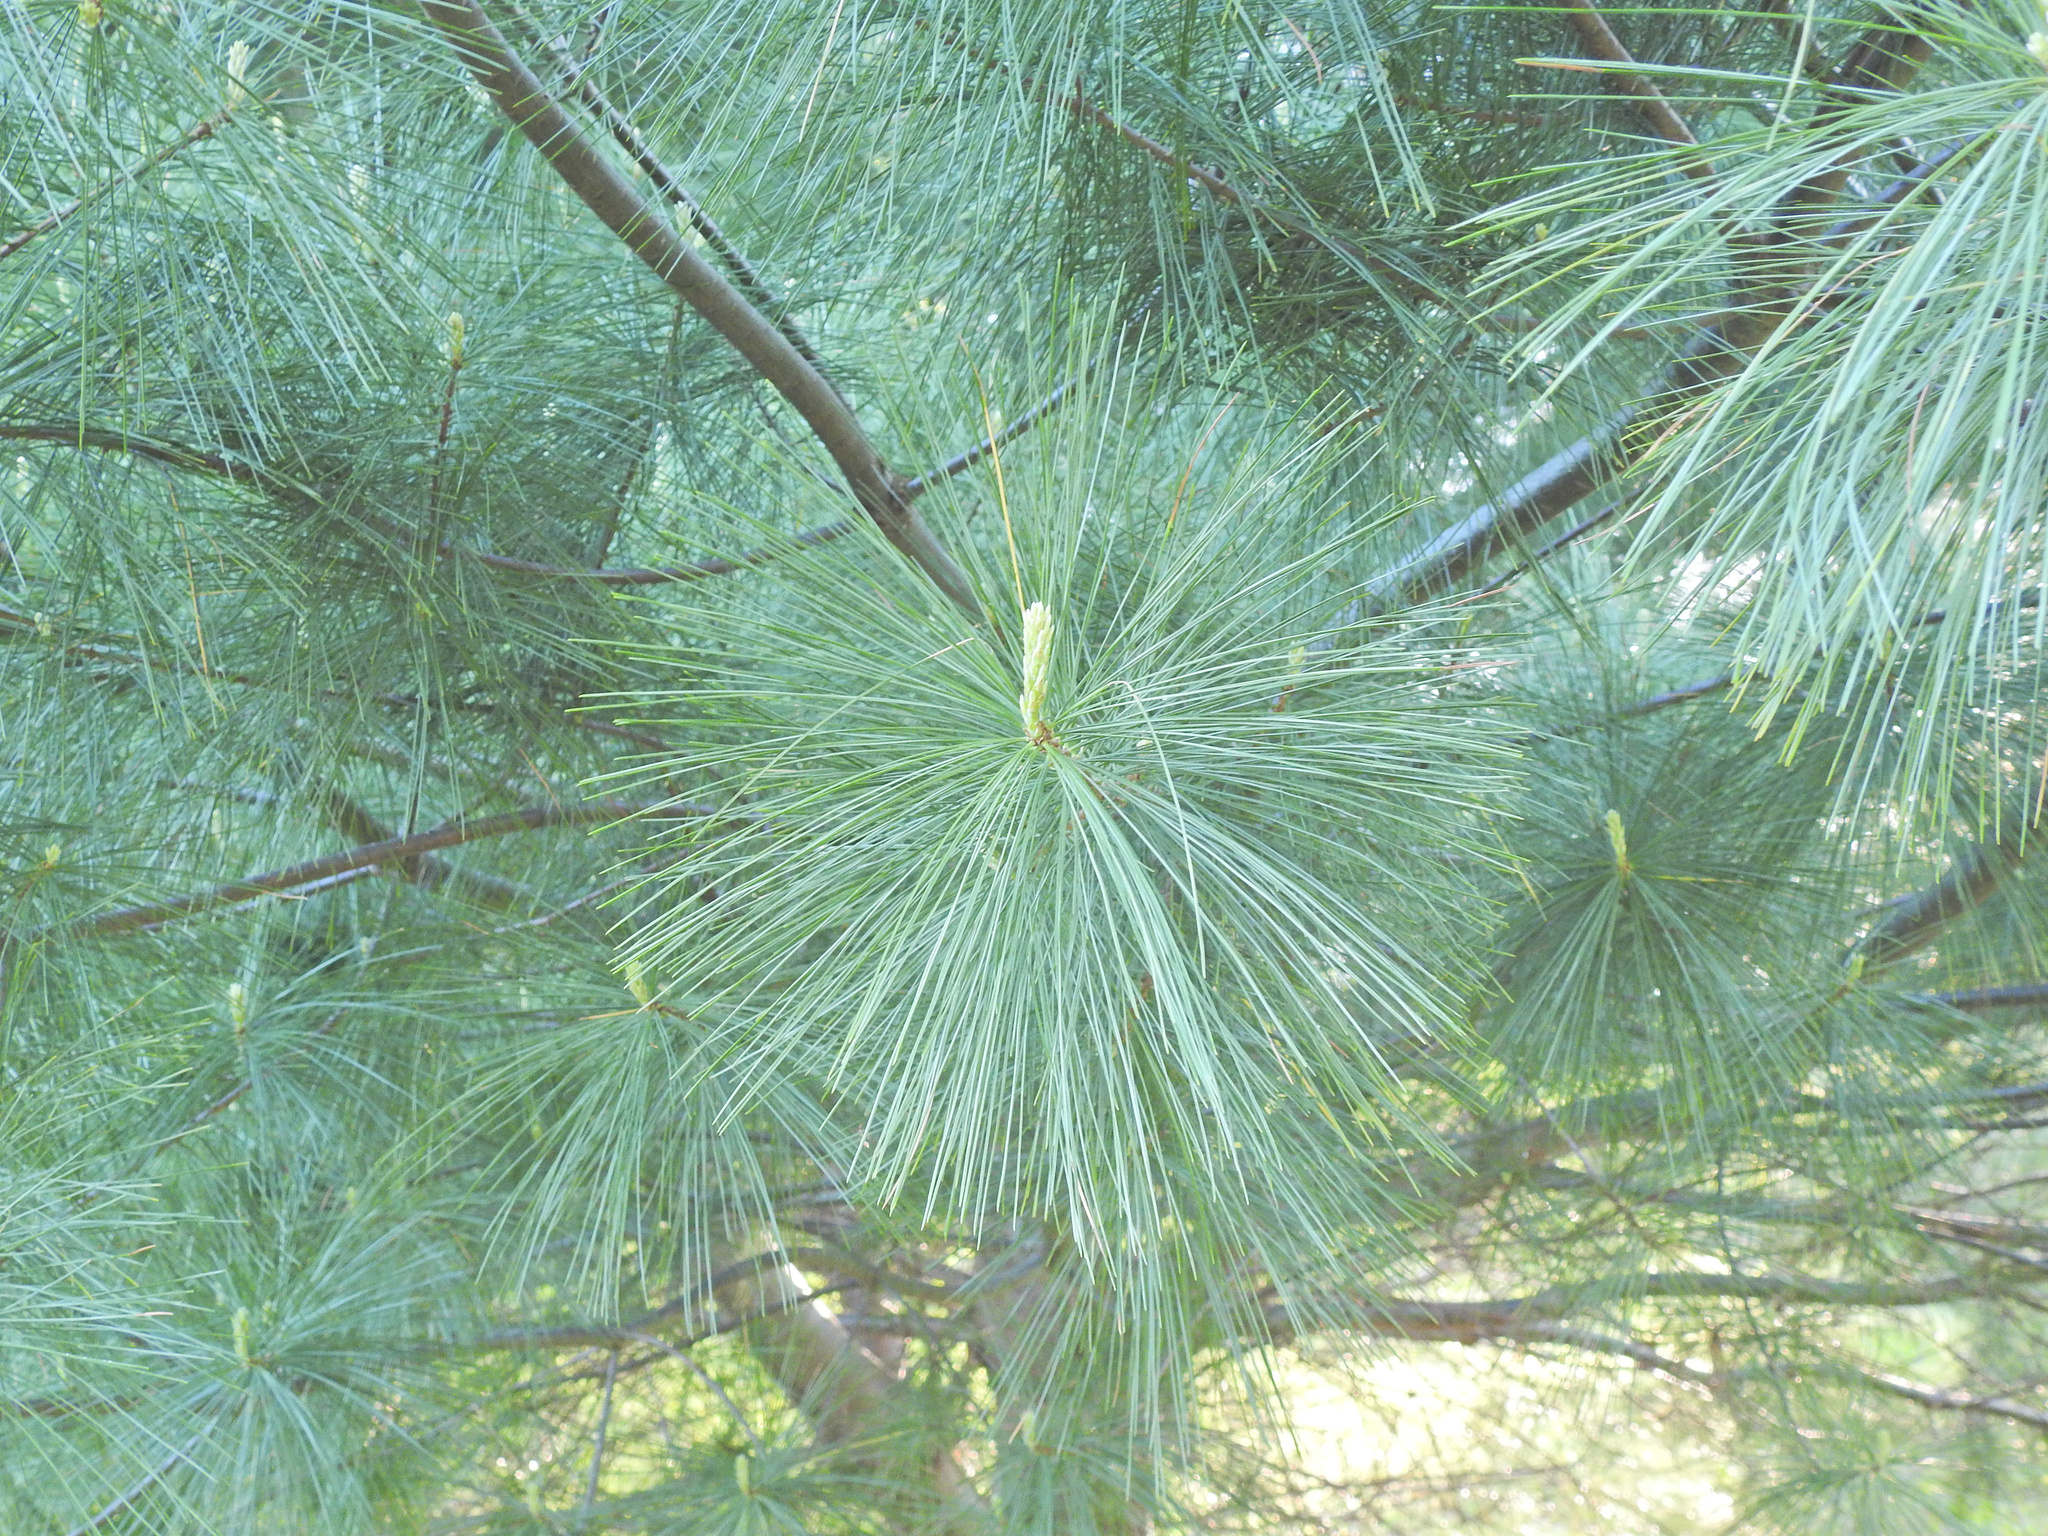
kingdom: Plantae
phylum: Tracheophyta
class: Pinopsida
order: Pinales
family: Pinaceae
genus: Pinus
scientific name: Pinus strobus
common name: Weymouth pine
